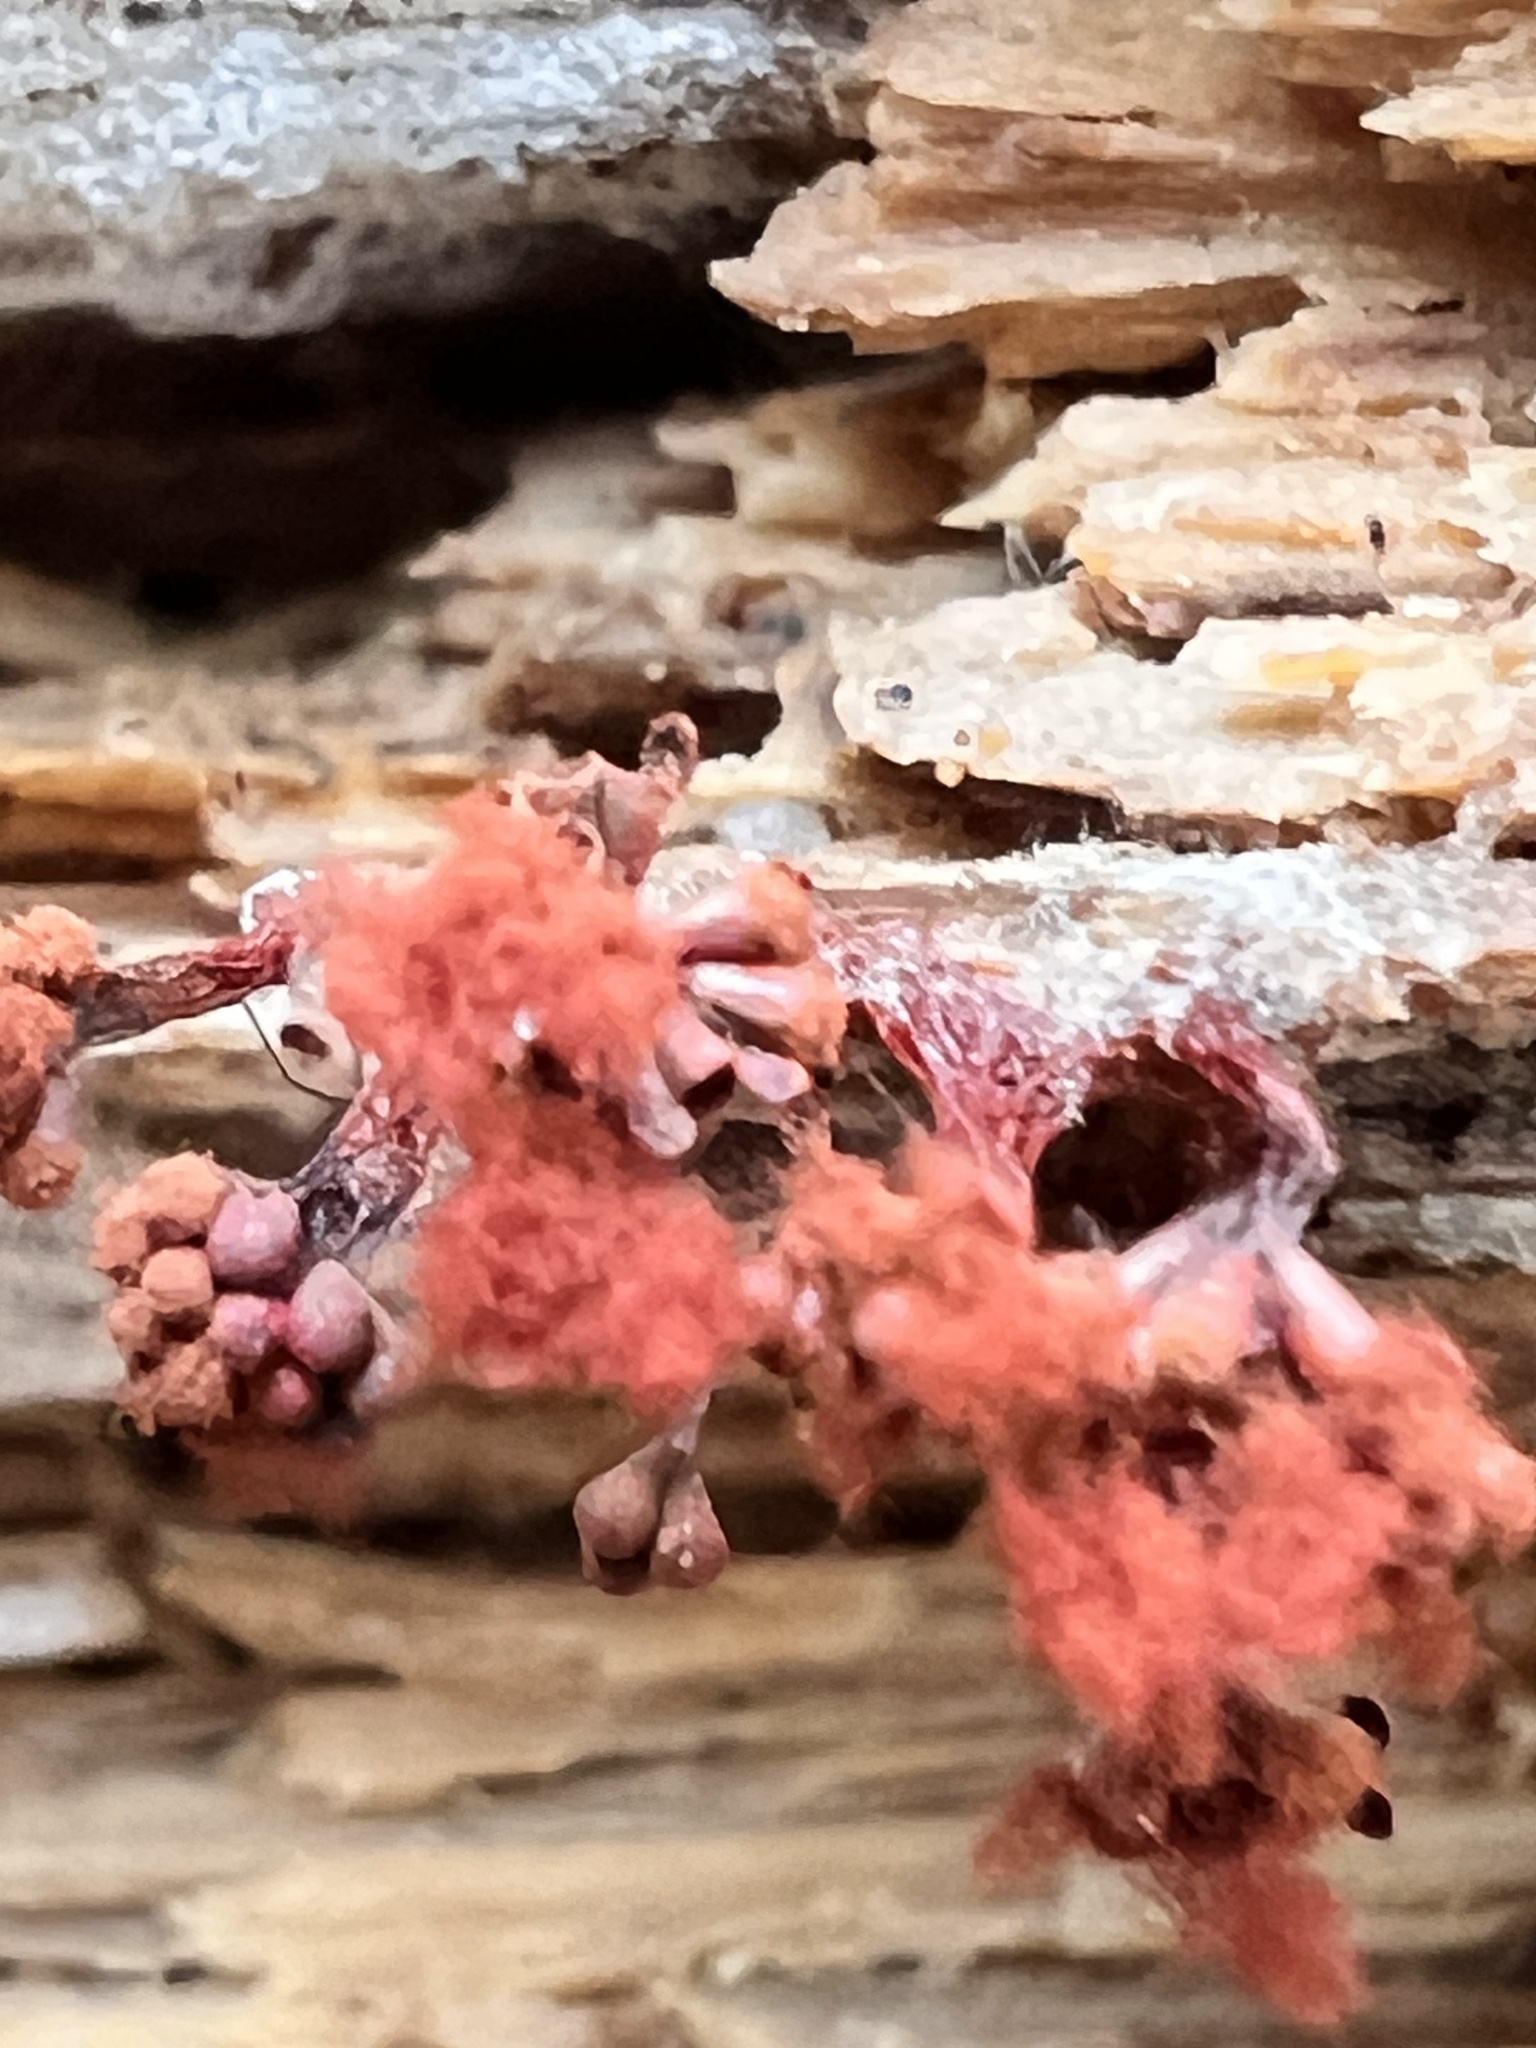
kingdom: Protozoa
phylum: Mycetozoa
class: Myxomycetes
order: Trichiales
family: Trichiaceae
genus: Metatrichia
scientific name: Metatrichia vesparia
